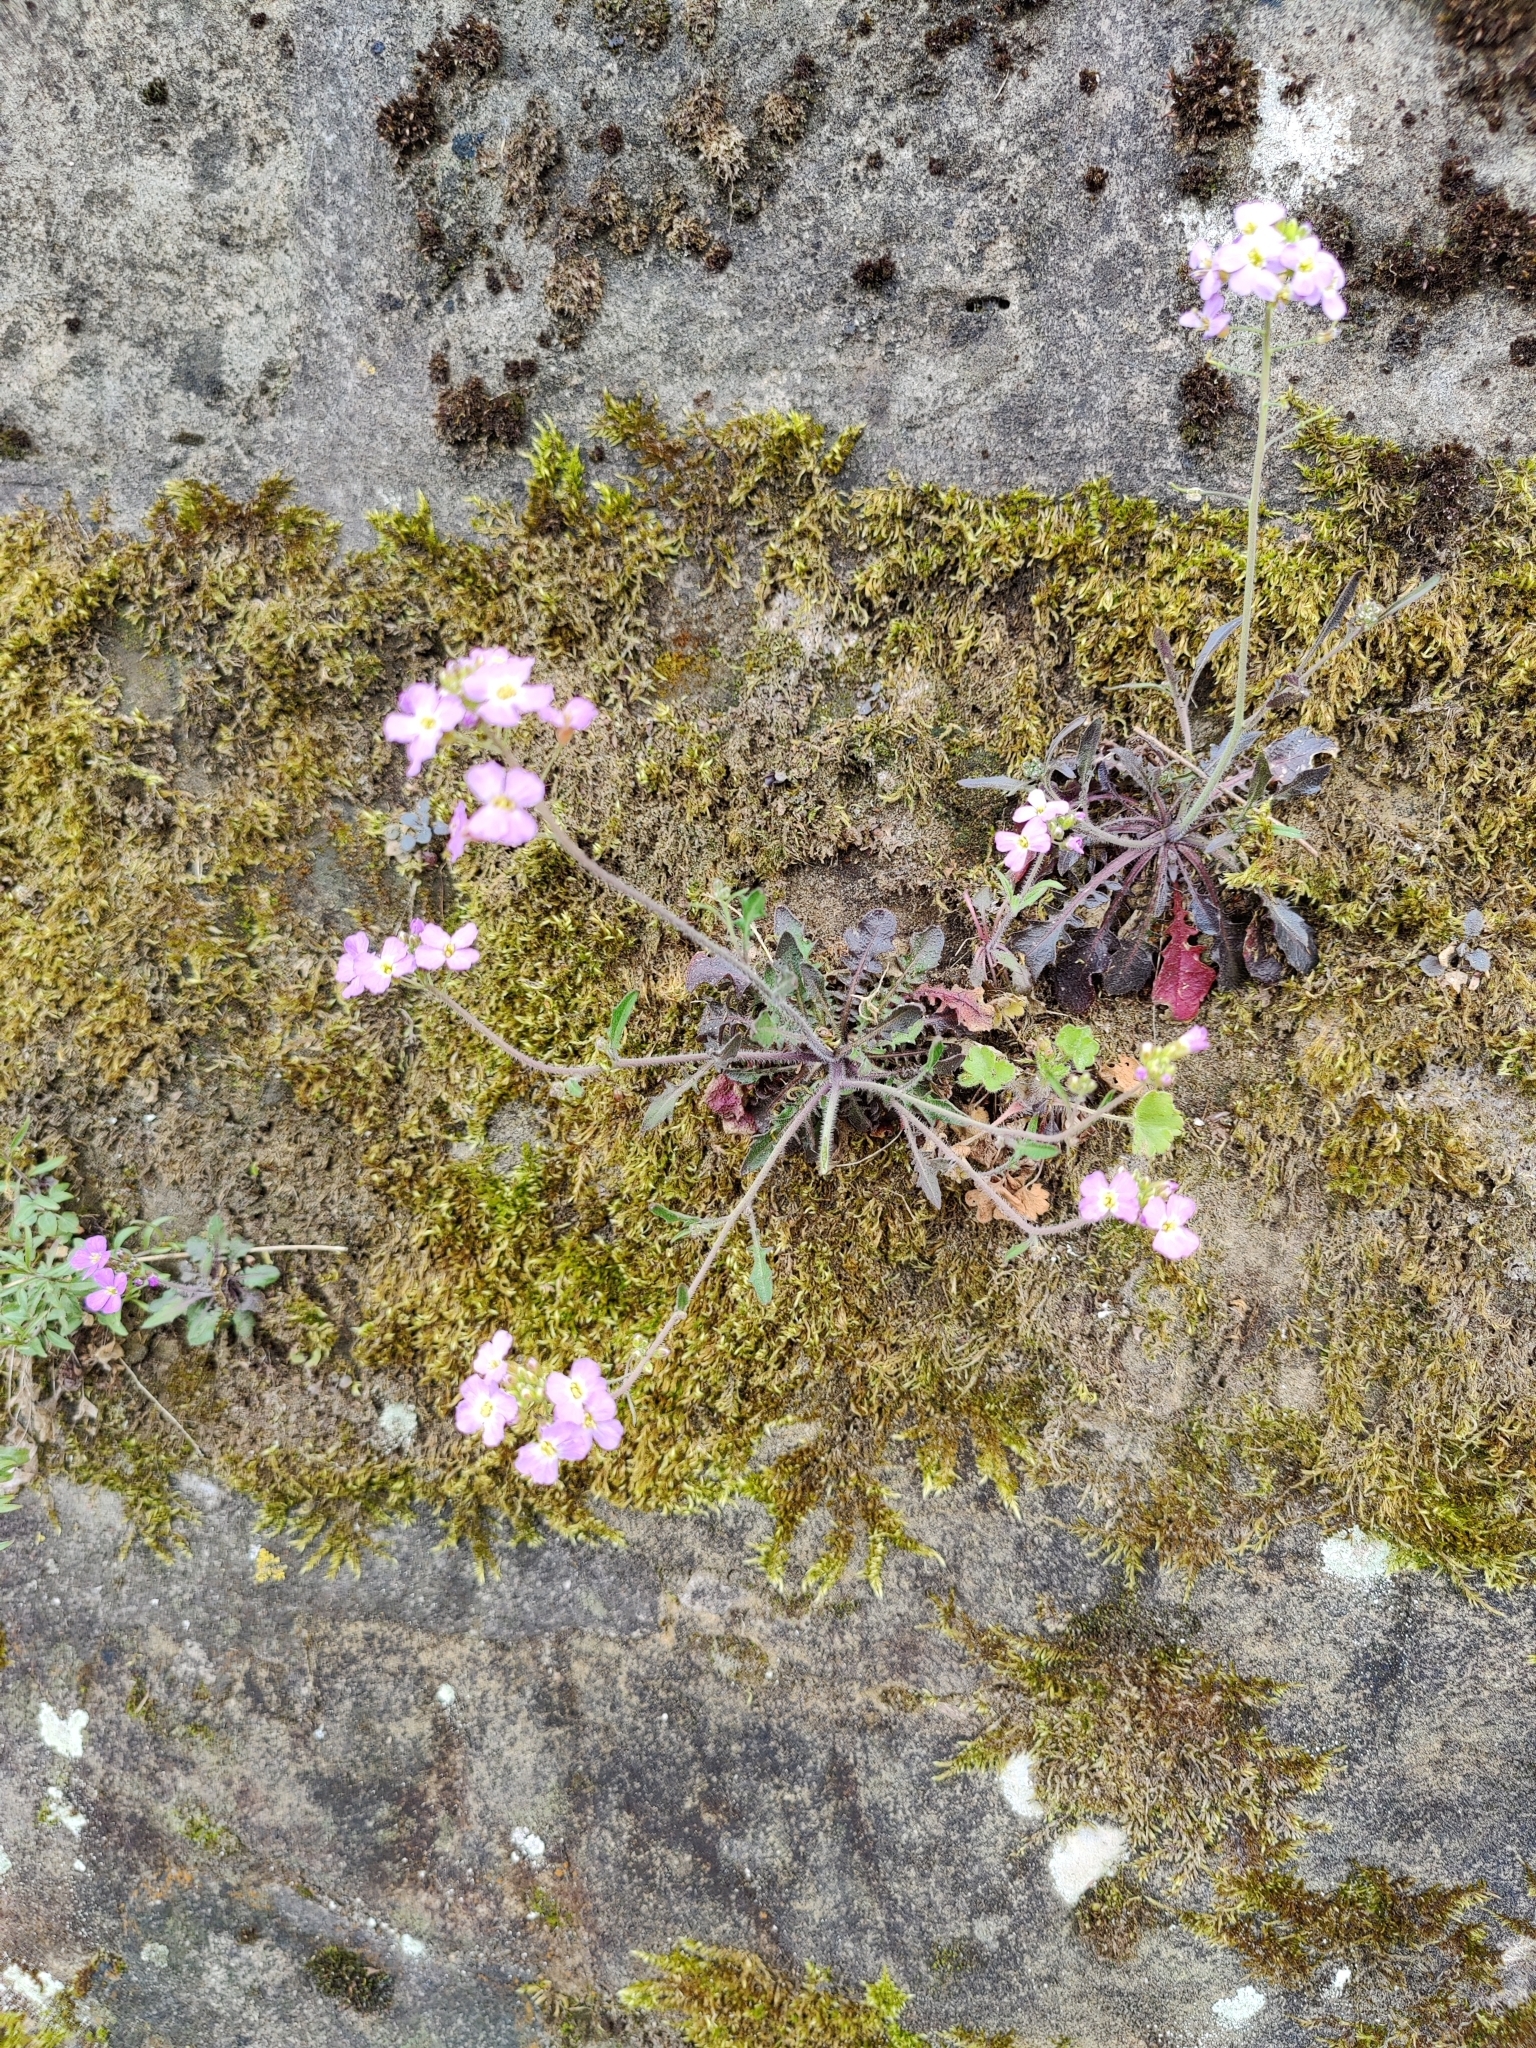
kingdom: Plantae
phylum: Tracheophyta
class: Magnoliopsida
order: Brassicales
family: Brassicaceae
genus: Arabidopsis
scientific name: Arabidopsis arenosa
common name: Sand rock-cress
